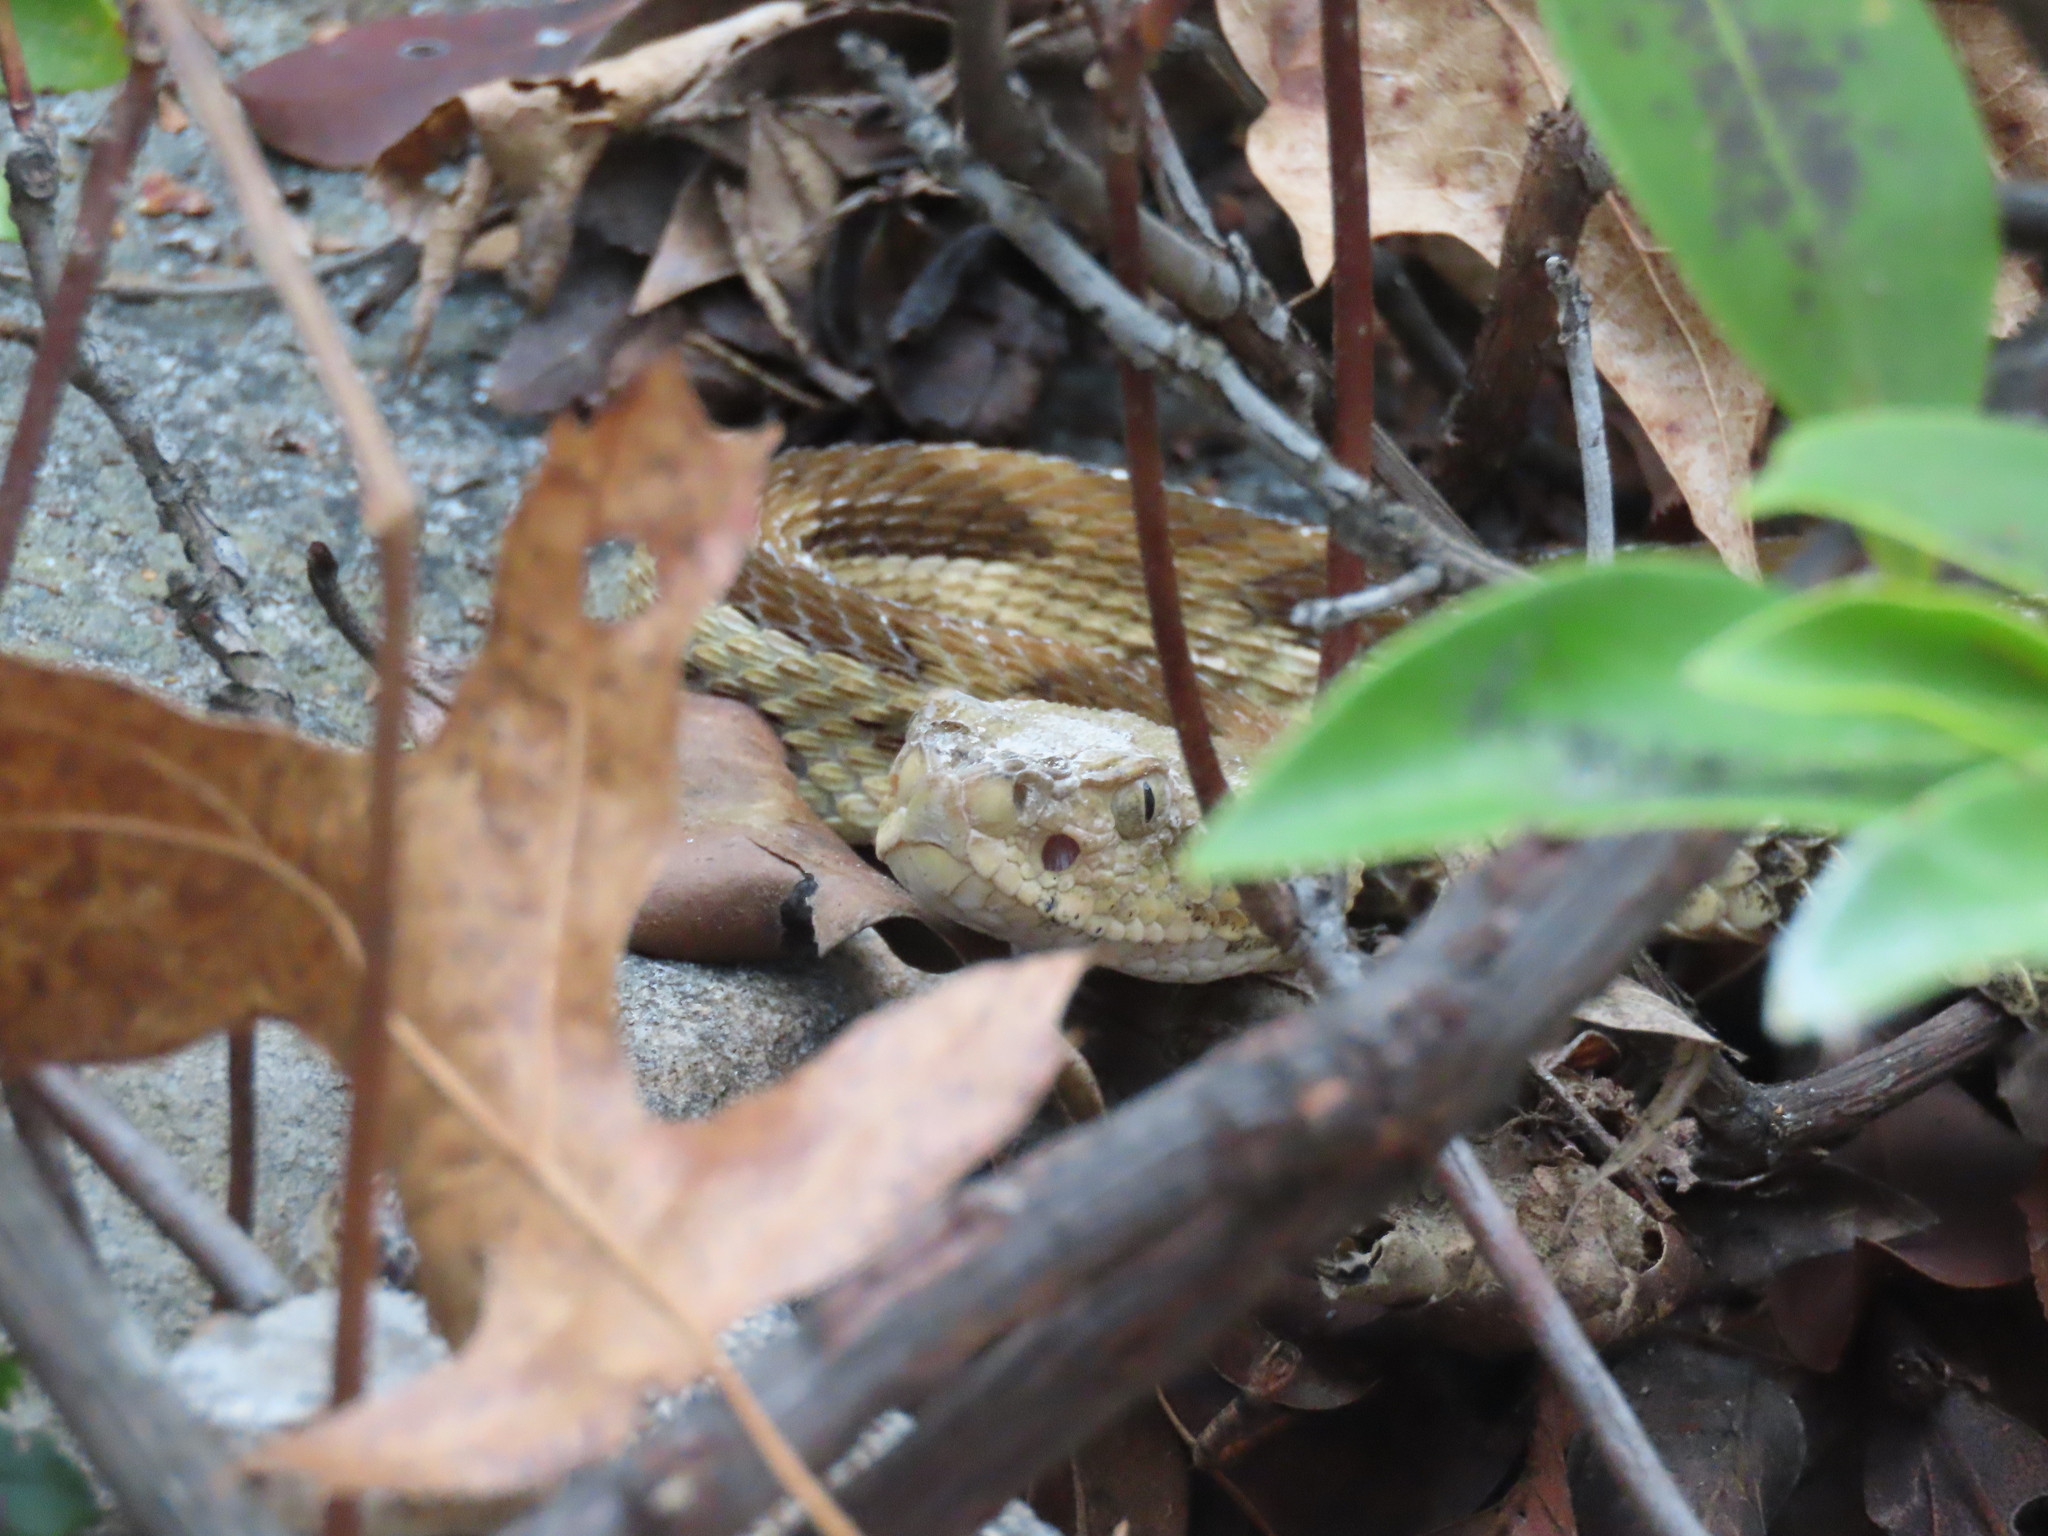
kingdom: Animalia
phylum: Chordata
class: Squamata
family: Viperidae
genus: Crotalus
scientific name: Crotalus horridus
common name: Timber rattlesnake
